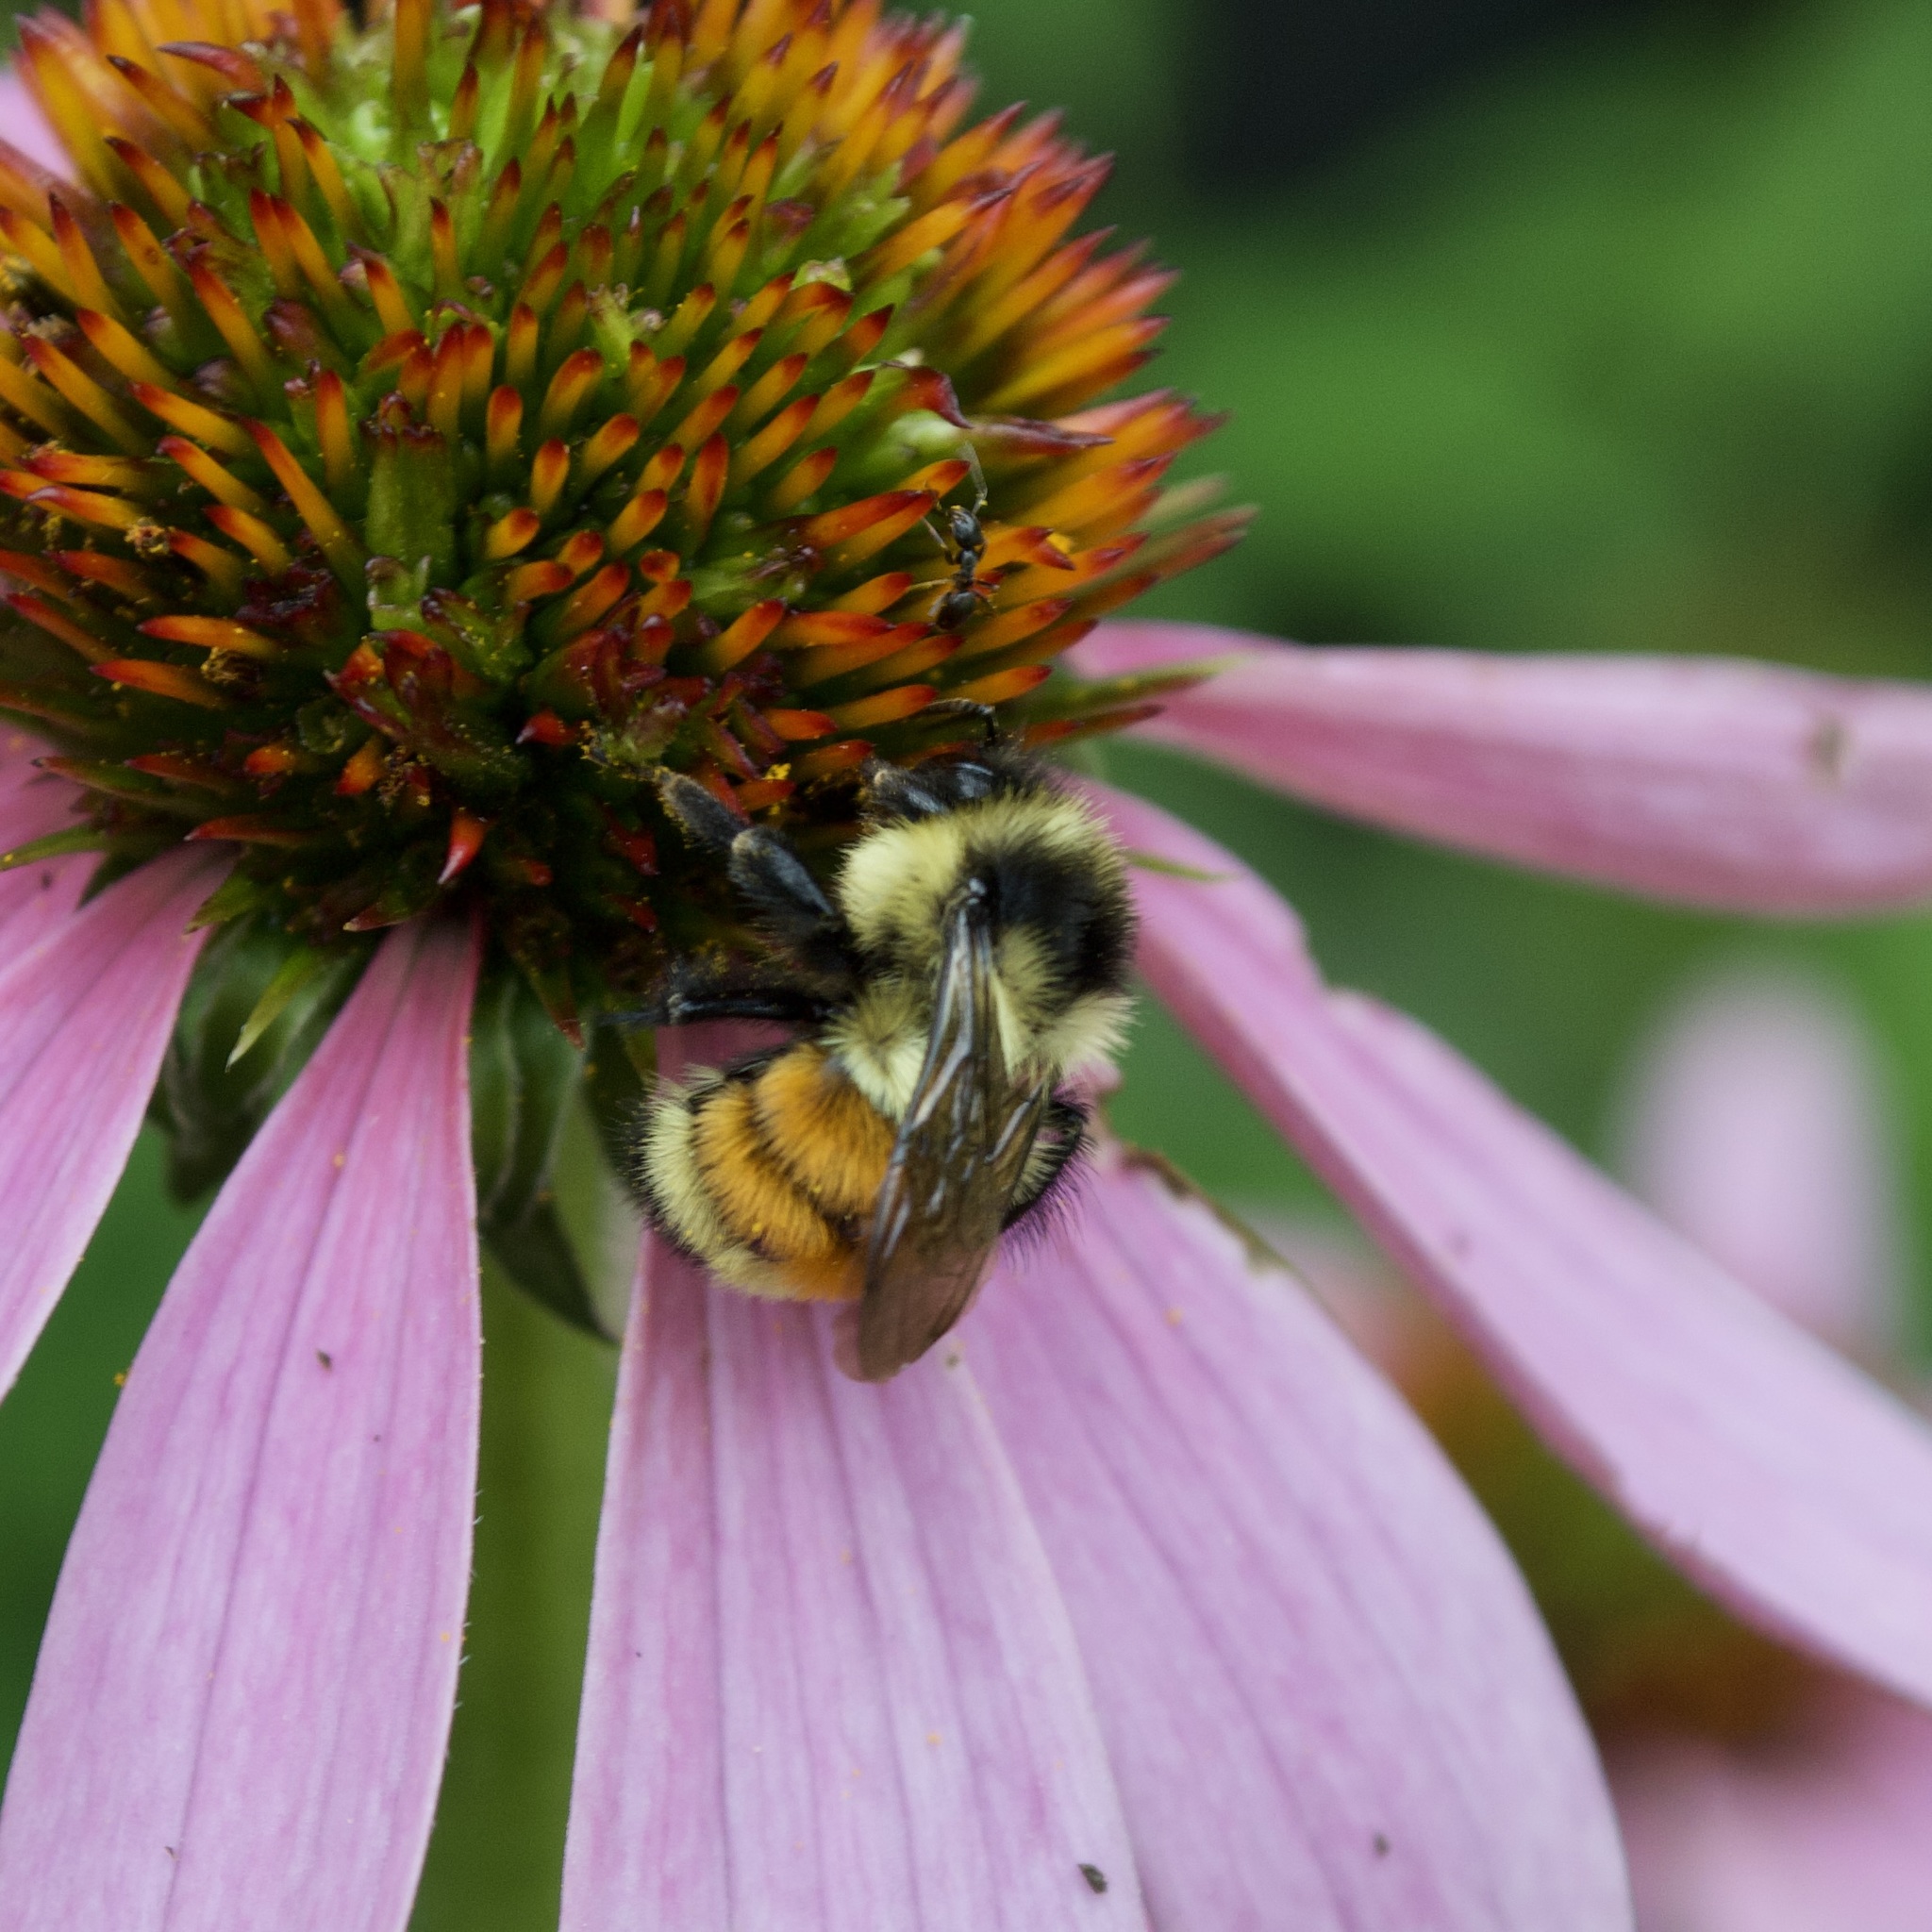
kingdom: Animalia
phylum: Arthropoda
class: Insecta
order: Hymenoptera
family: Apidae
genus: Bombus
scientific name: Bombus ternarius
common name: Tri-colored bumble bee
